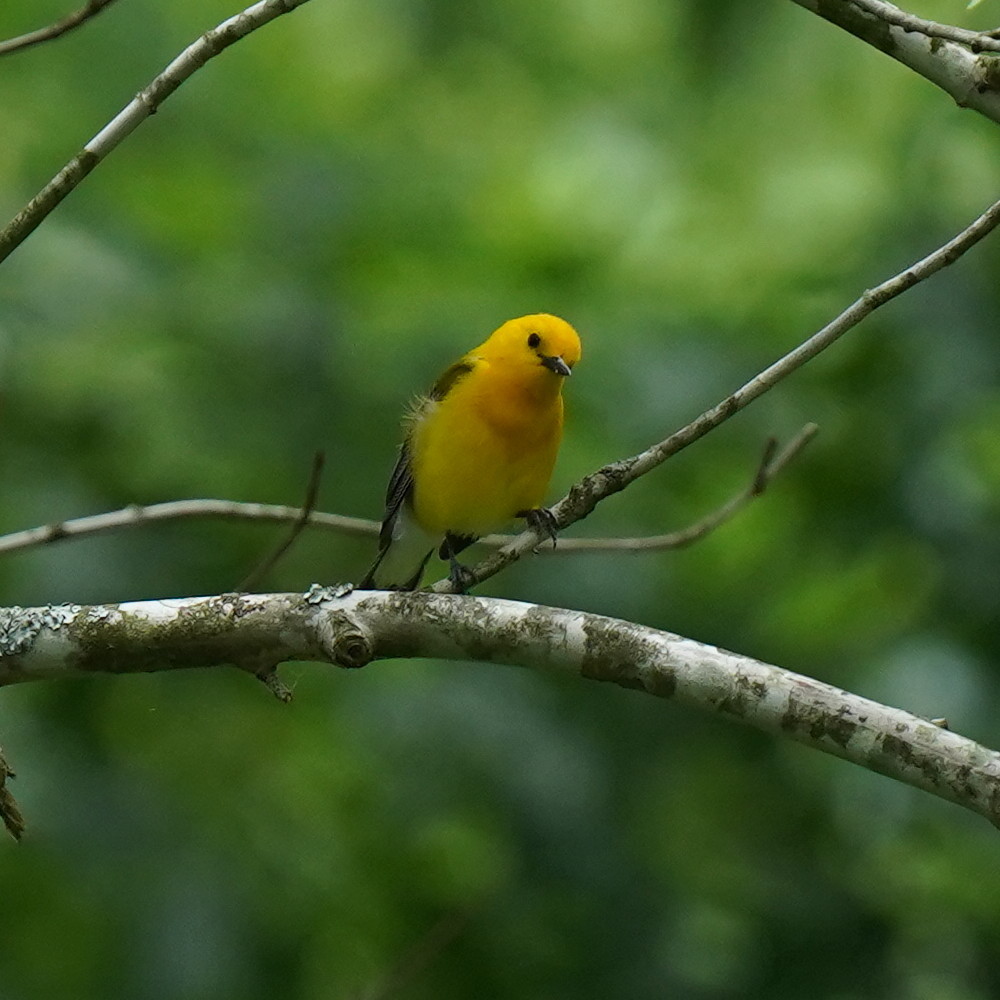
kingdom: Animalia
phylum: Chordata
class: Aves
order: Passeriformes
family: Parulidae
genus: Protonotaria
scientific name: Protonotaria citrea
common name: Prothonotary warbler
